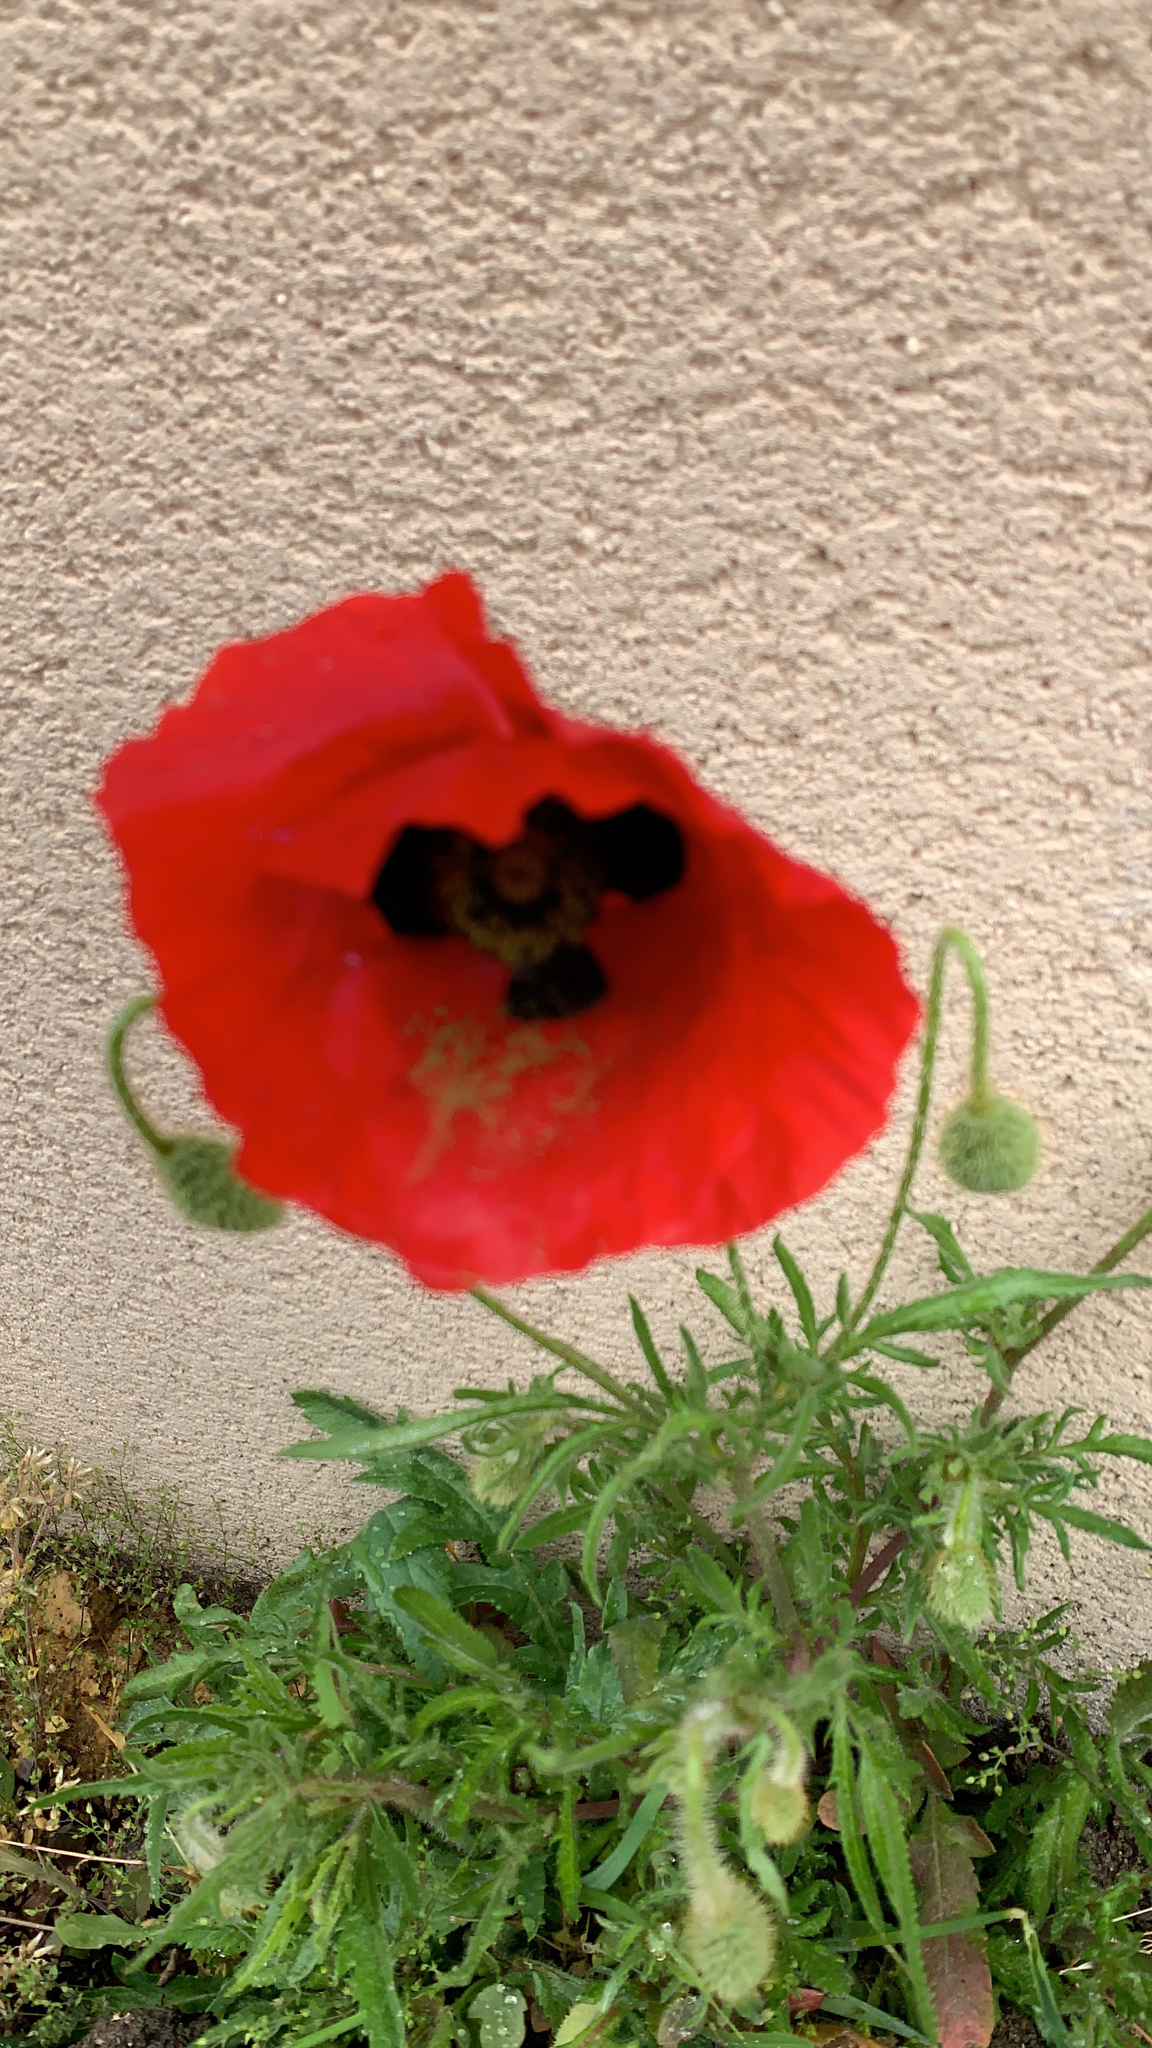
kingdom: Plantae
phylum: Tracheophyta
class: Magnoliopsida
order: Ranunculales
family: Papaveraceae
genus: Papaver
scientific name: Papaver rhoeas
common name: Corn poppy
